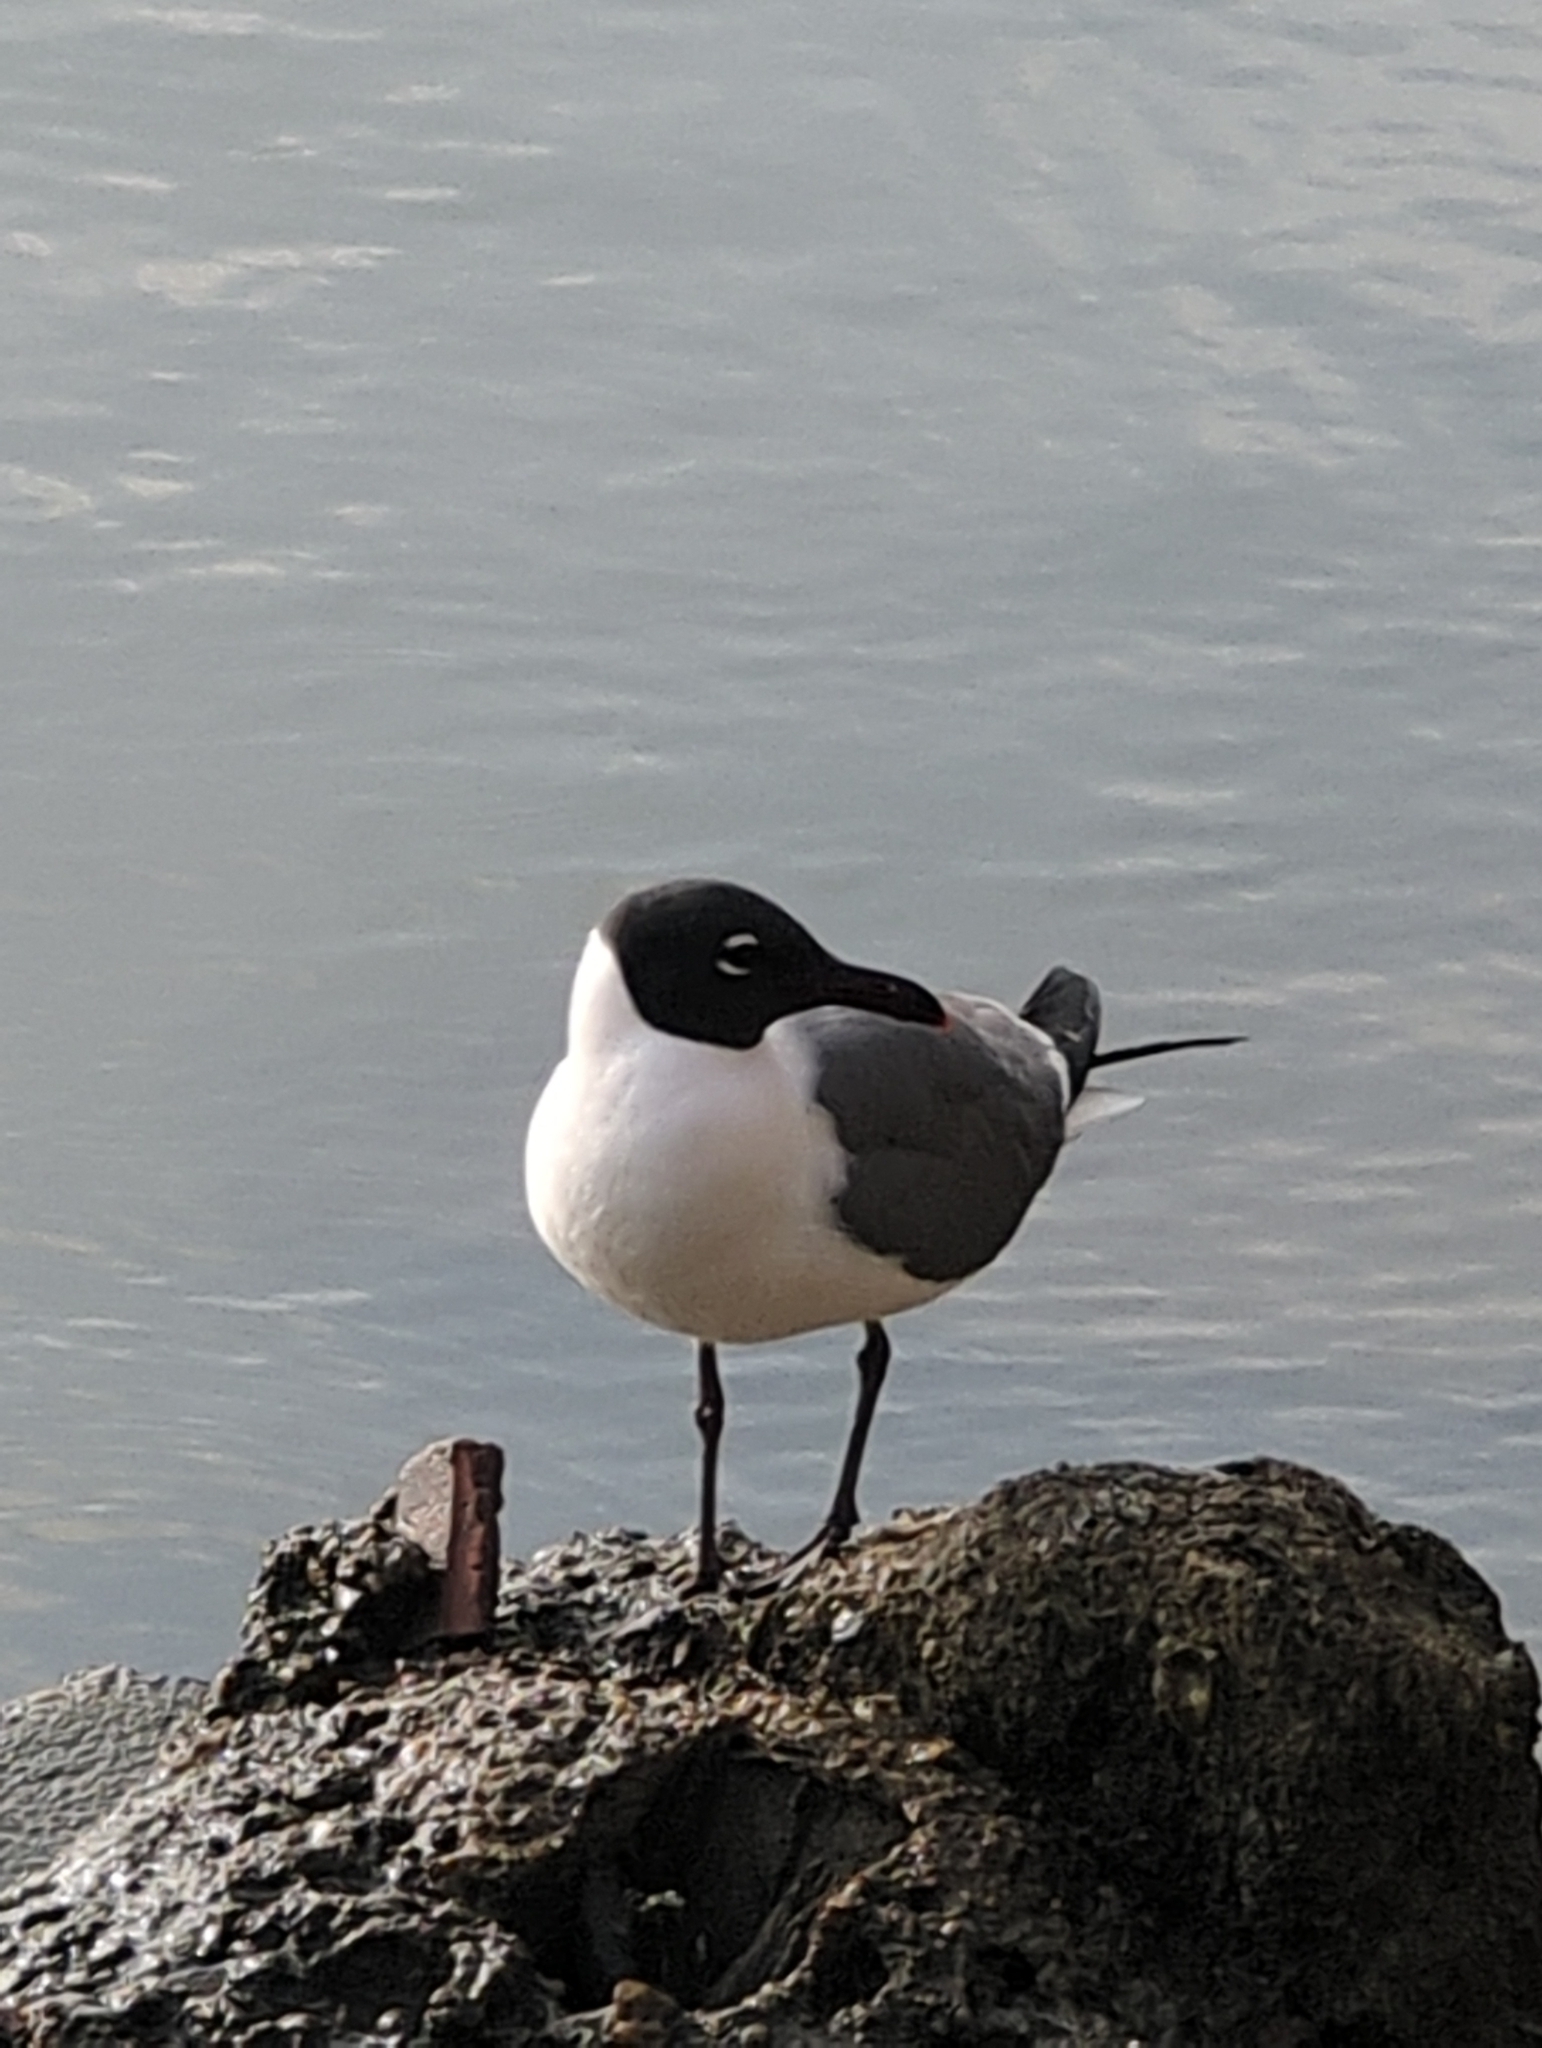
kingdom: Animalia
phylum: Chordata
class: Aves
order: Charadriiformes
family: Laridae
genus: Leucophaeus
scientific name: Leucophaeus atricilla
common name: Laughing gull
